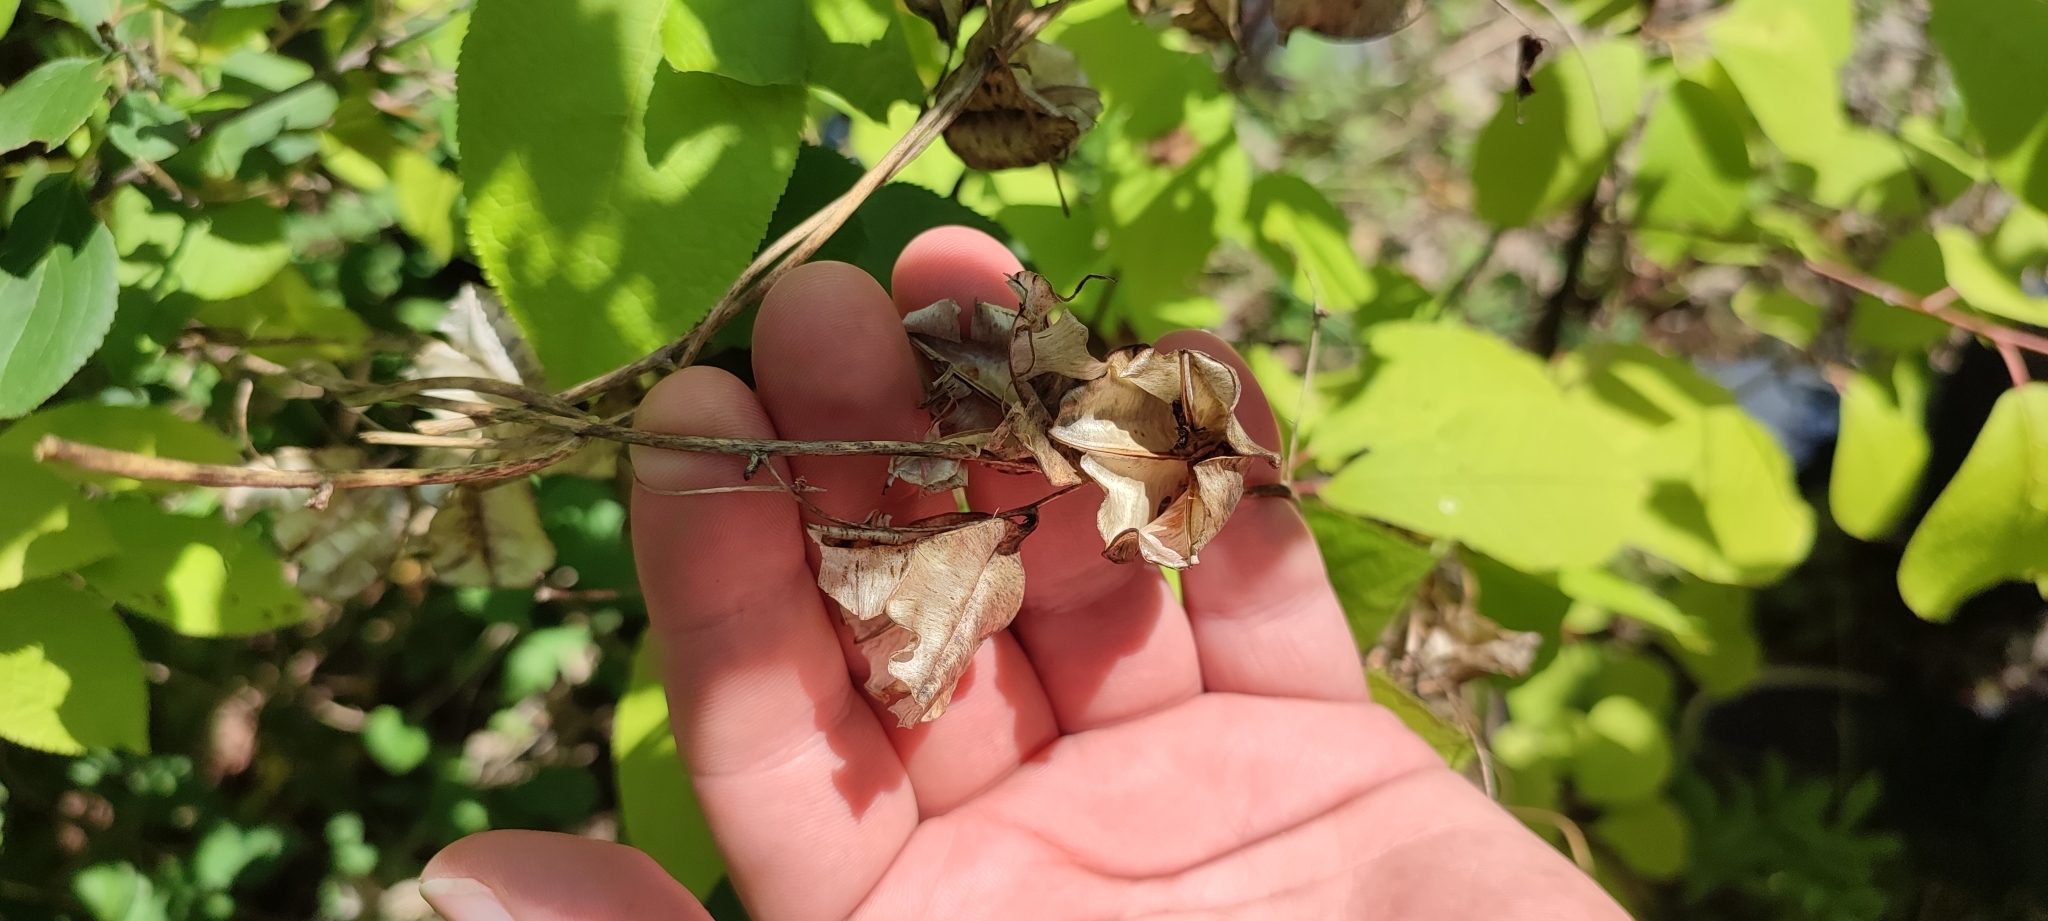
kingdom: Plantae
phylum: Tracheophyta
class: Liliopsida
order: Dioscoreales
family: Dioscoreaceae
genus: Dioscorea
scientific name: Dioscorea caucasica
